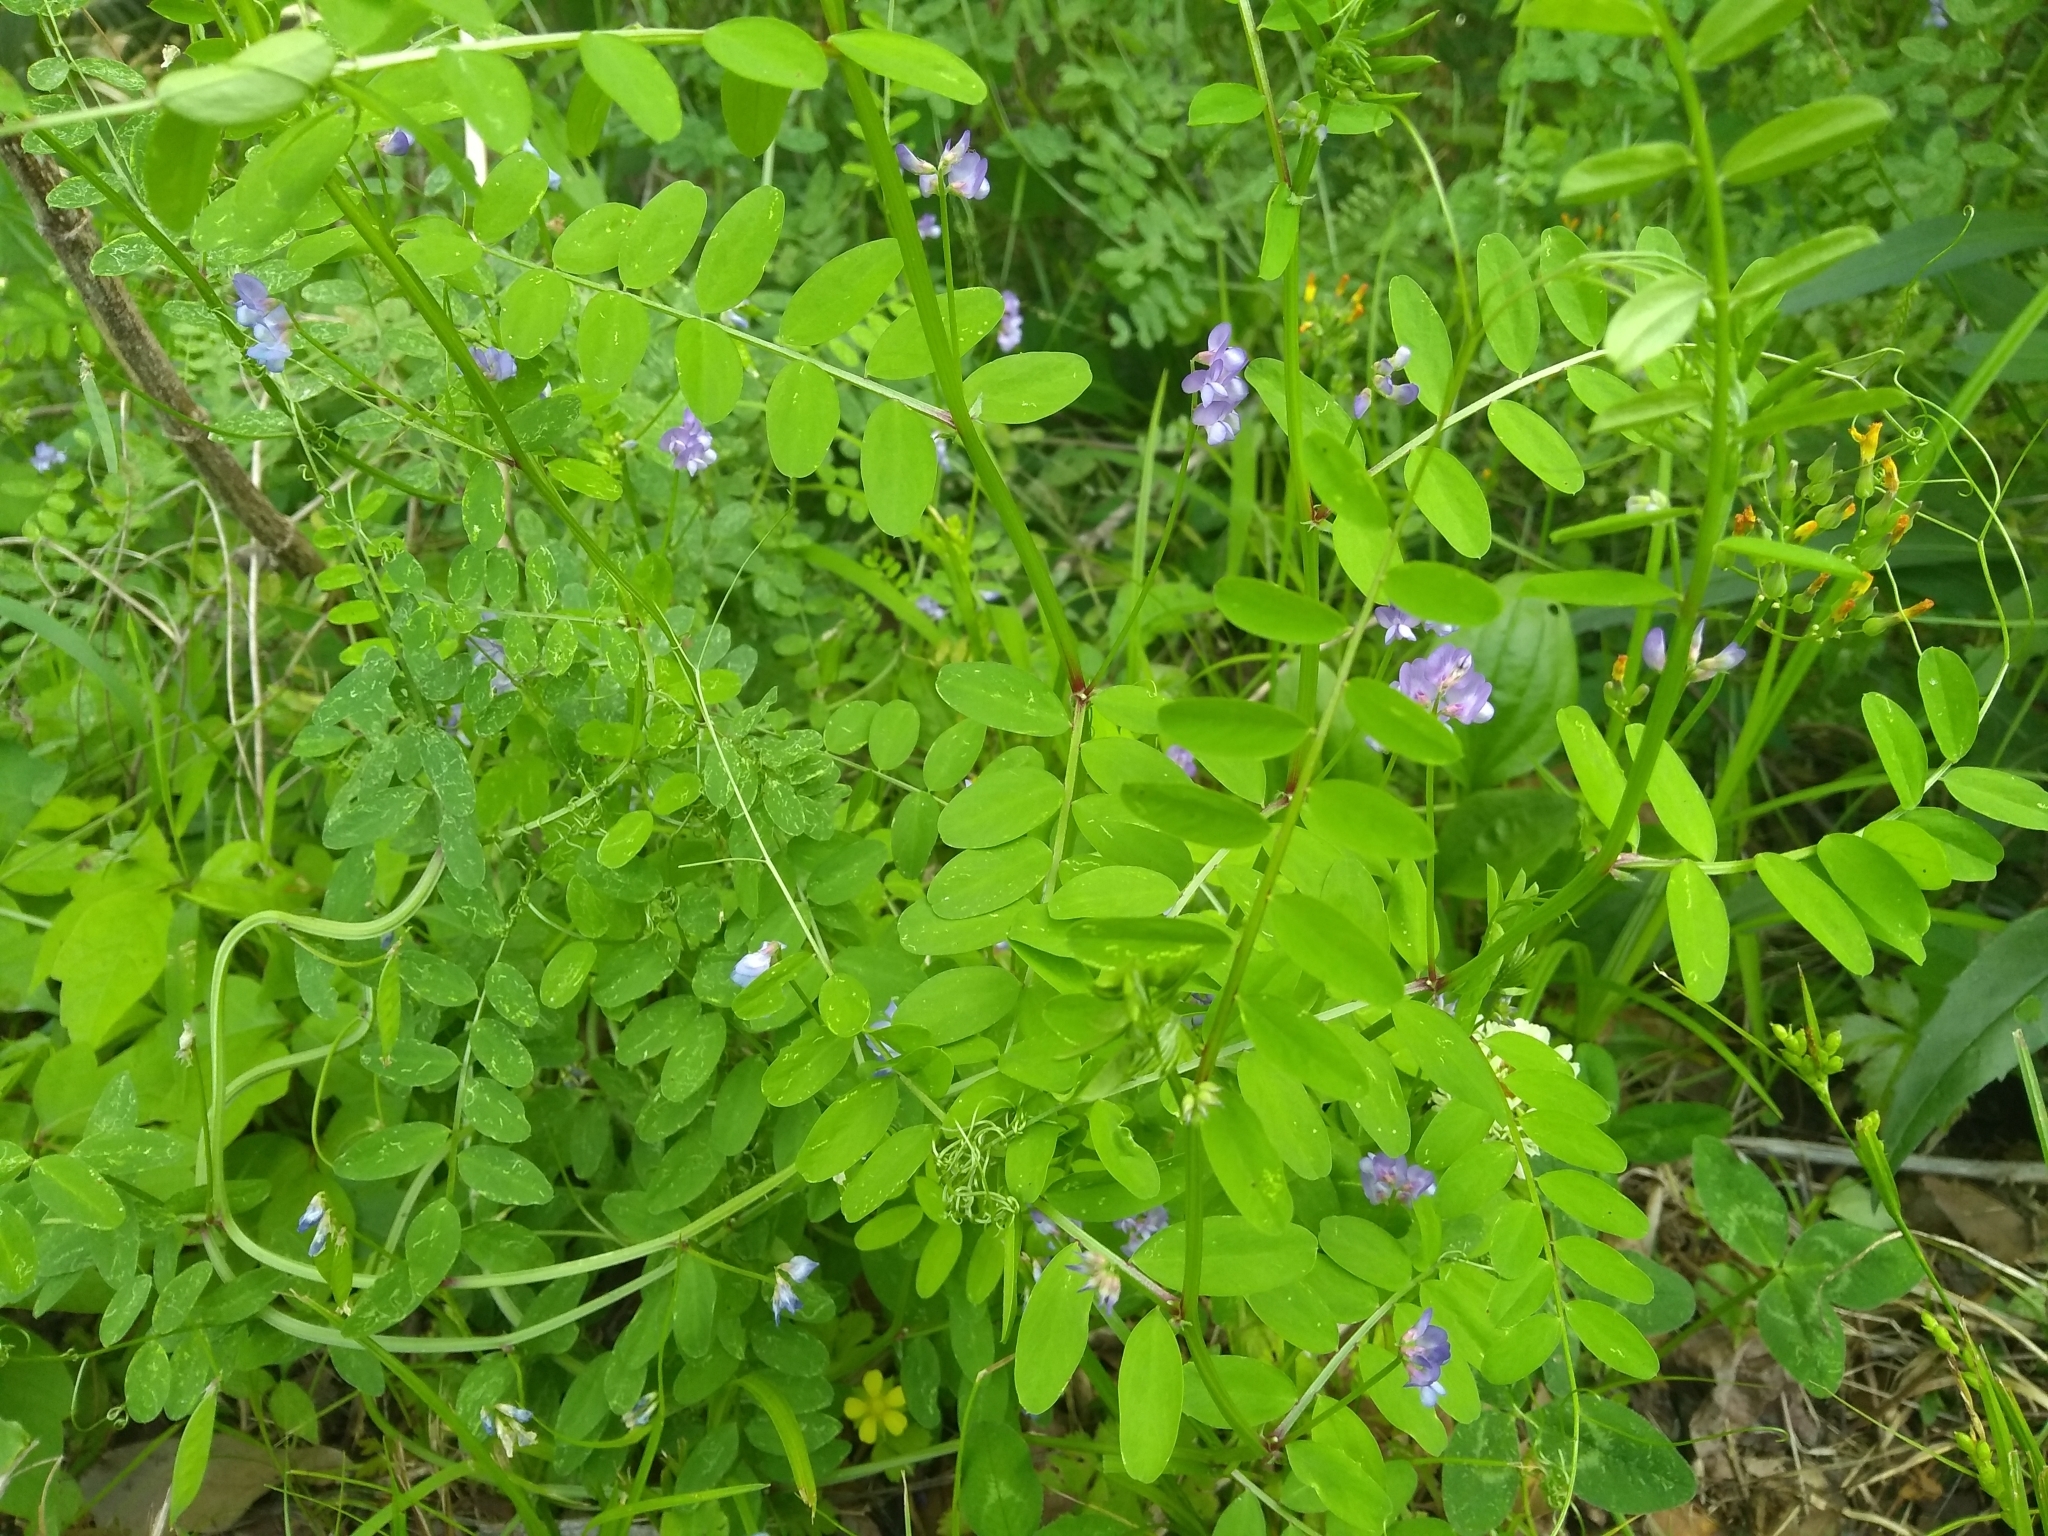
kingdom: Plantae
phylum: Tracheophyta
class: Magnoliopsida
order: Fabales
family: Fabaceae
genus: Vicia
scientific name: Vicia ludoviciana
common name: Louisiana vetch
